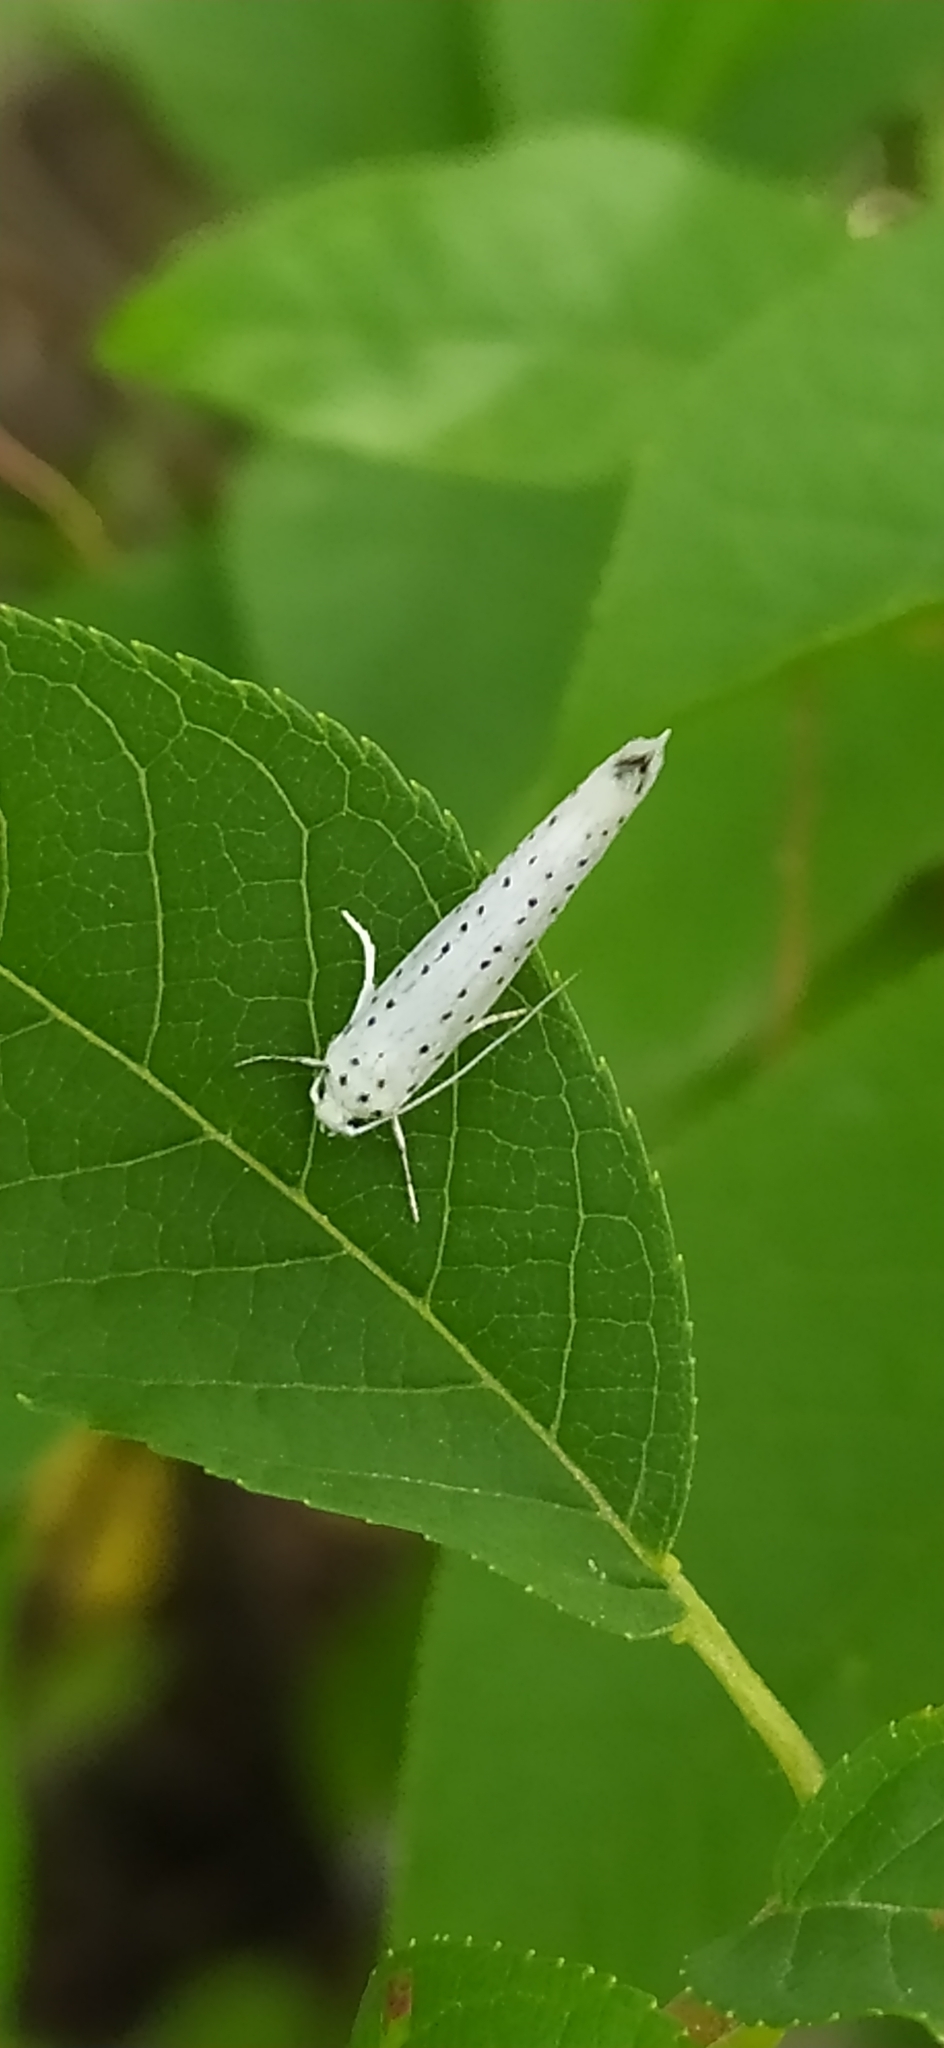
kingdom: Animalia
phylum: Arthropoda
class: Insecta
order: Lepidoptera
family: Yponomeutidae
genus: Yponomeuta
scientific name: Yponomeuta evonymella
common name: Bird-cherry ermine
